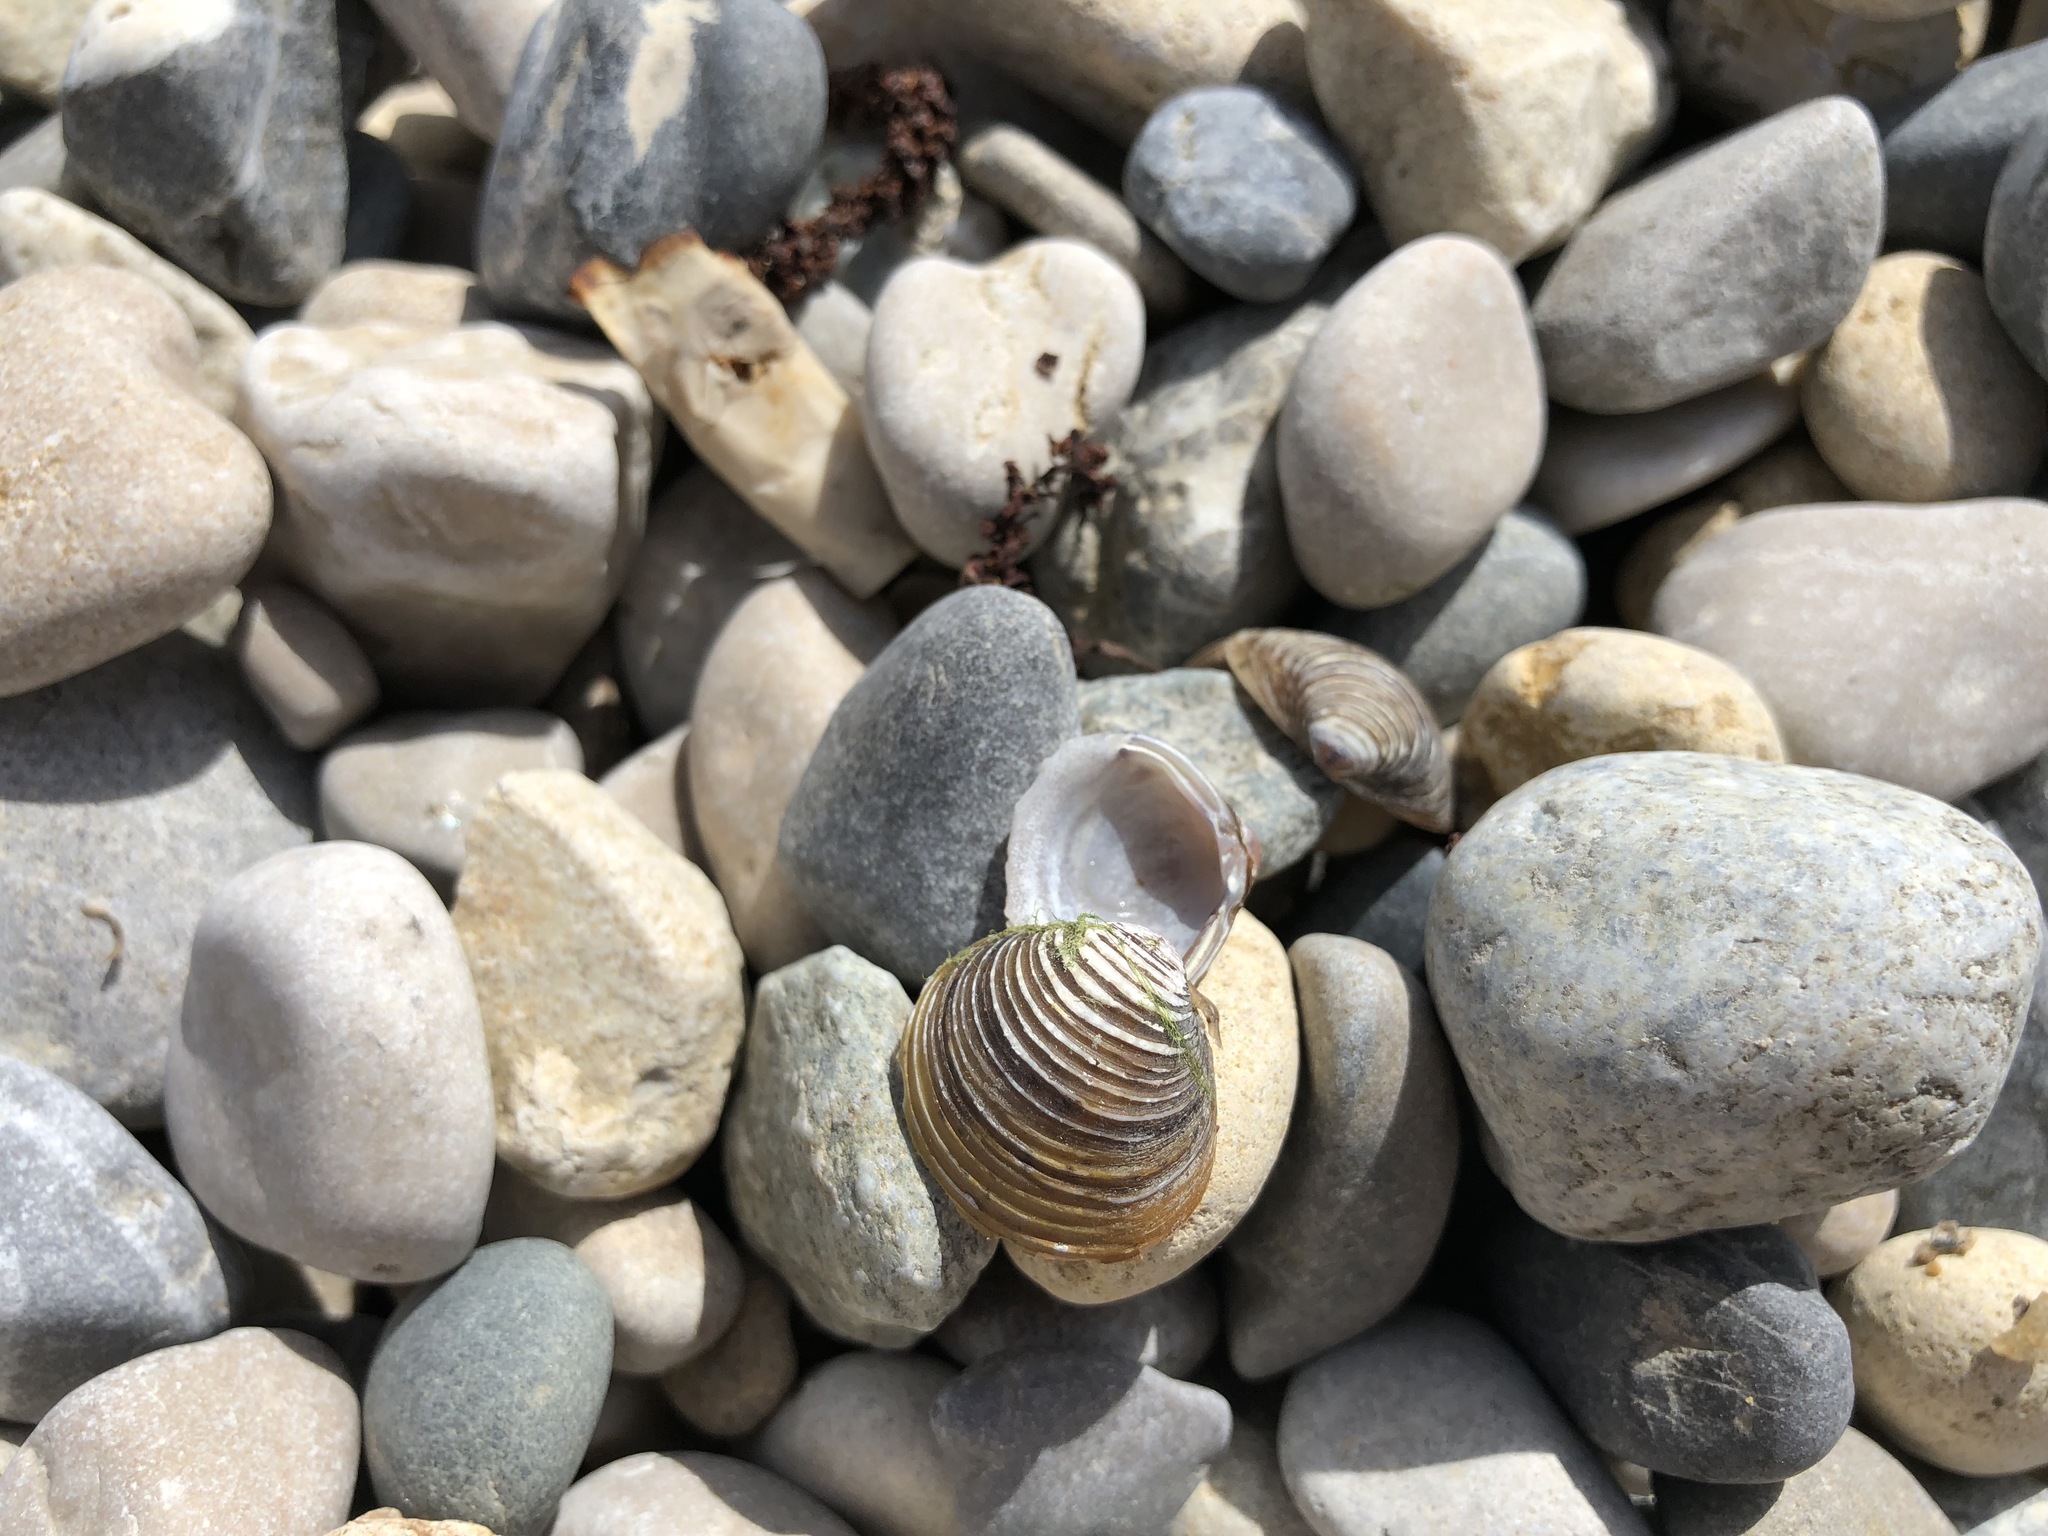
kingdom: Animalia
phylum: Mollusca
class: Bivalvia
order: Venerida
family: Cyrenidae
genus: Corbicula
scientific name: Corbicula fluminea
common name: Asian clam
